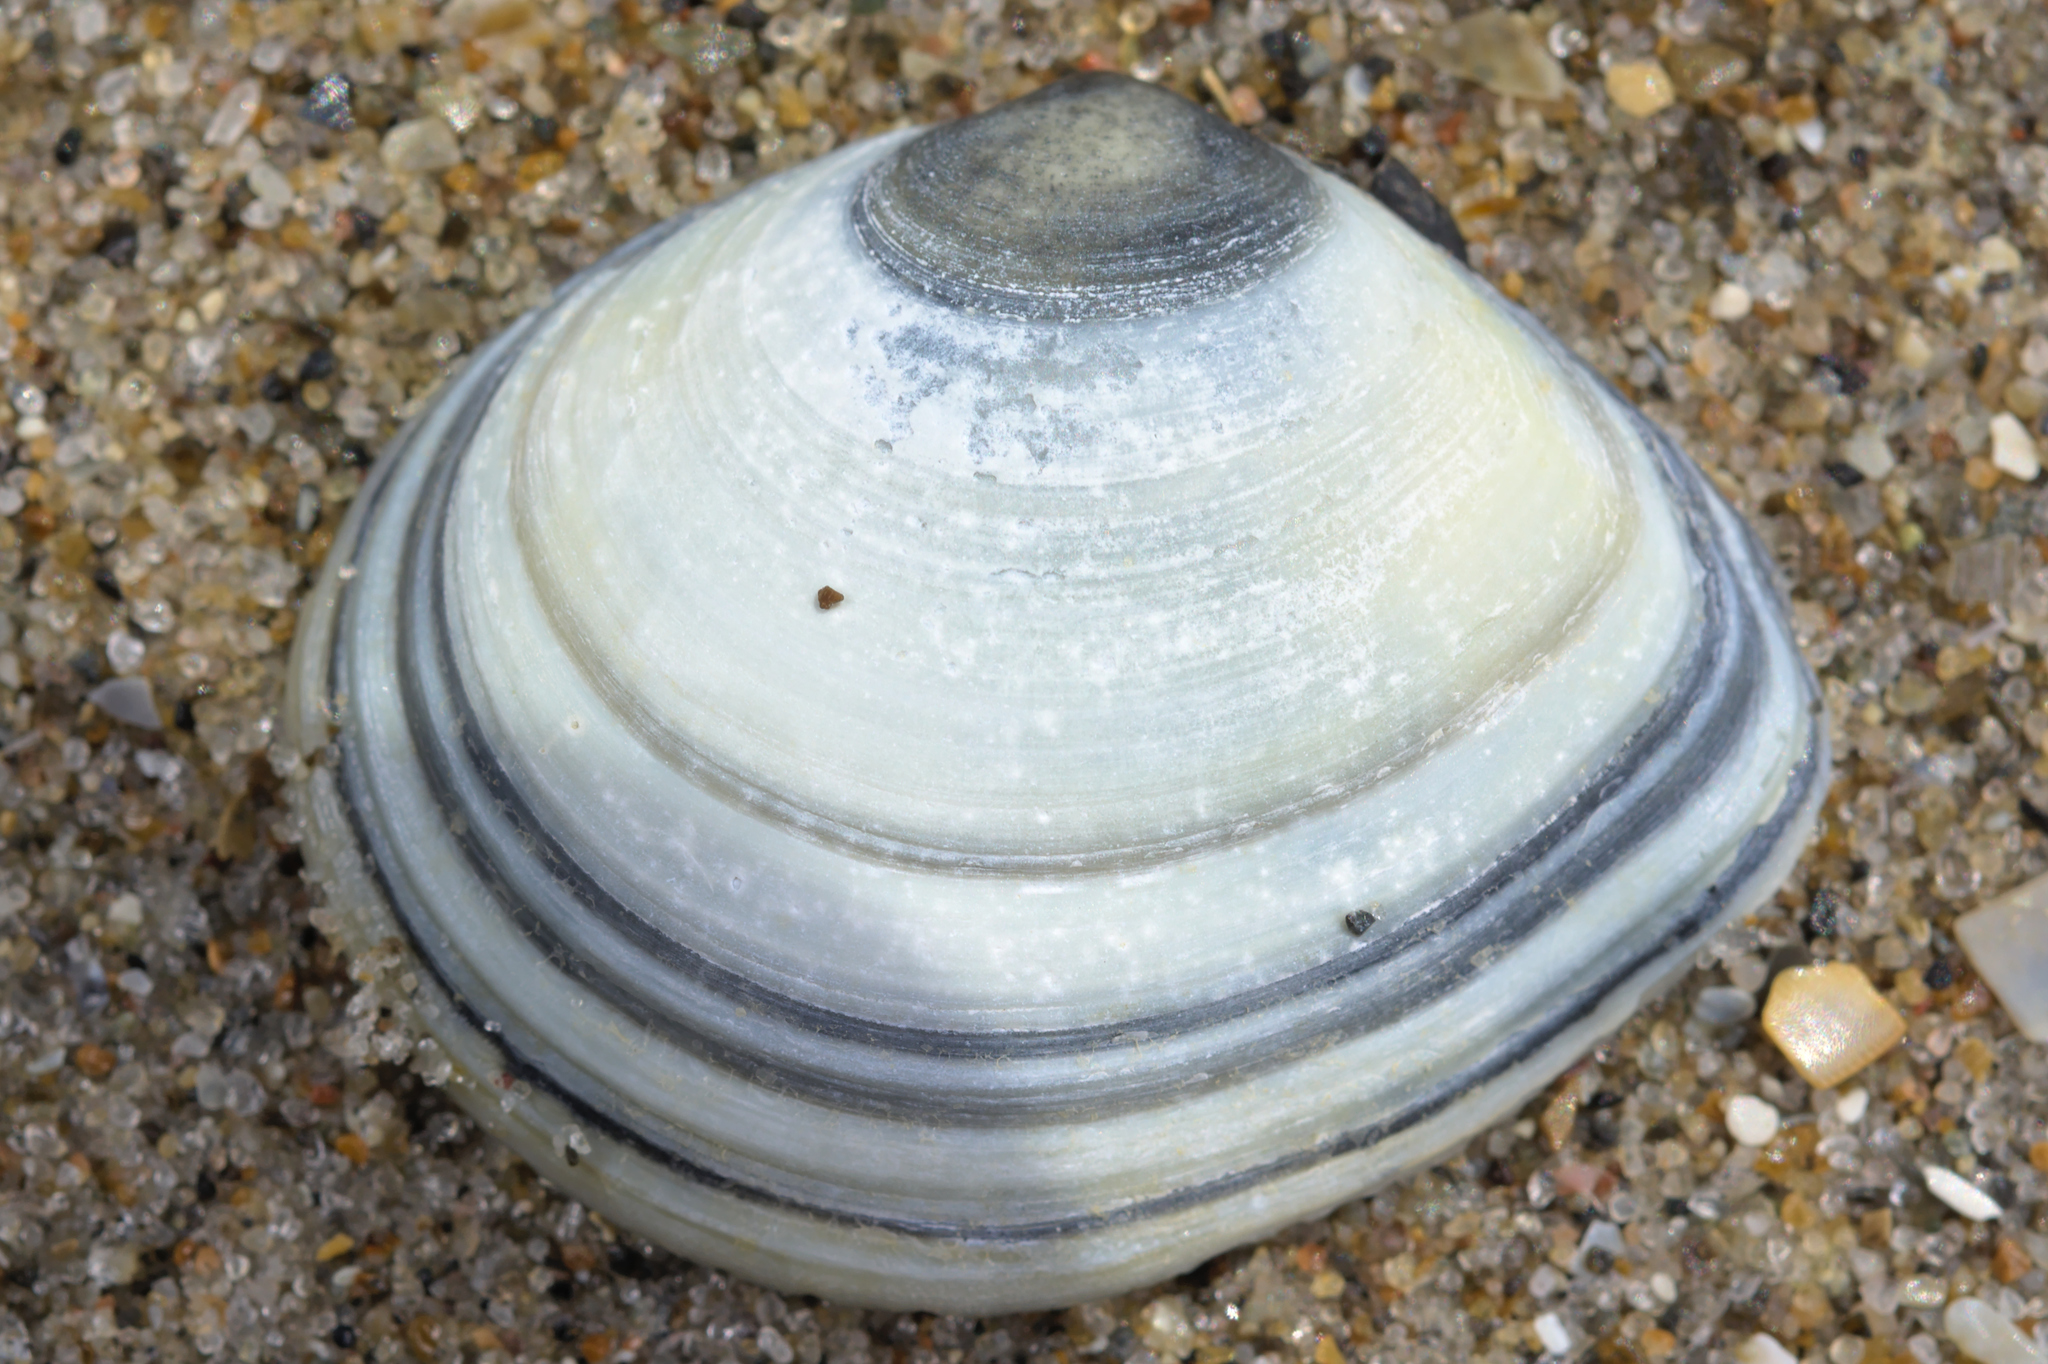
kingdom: Animalia
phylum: Mollusca
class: Bivalvia
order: Cardiida
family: Tellinidae
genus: Macoma
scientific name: Macoma balthica
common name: Baltic tellin
